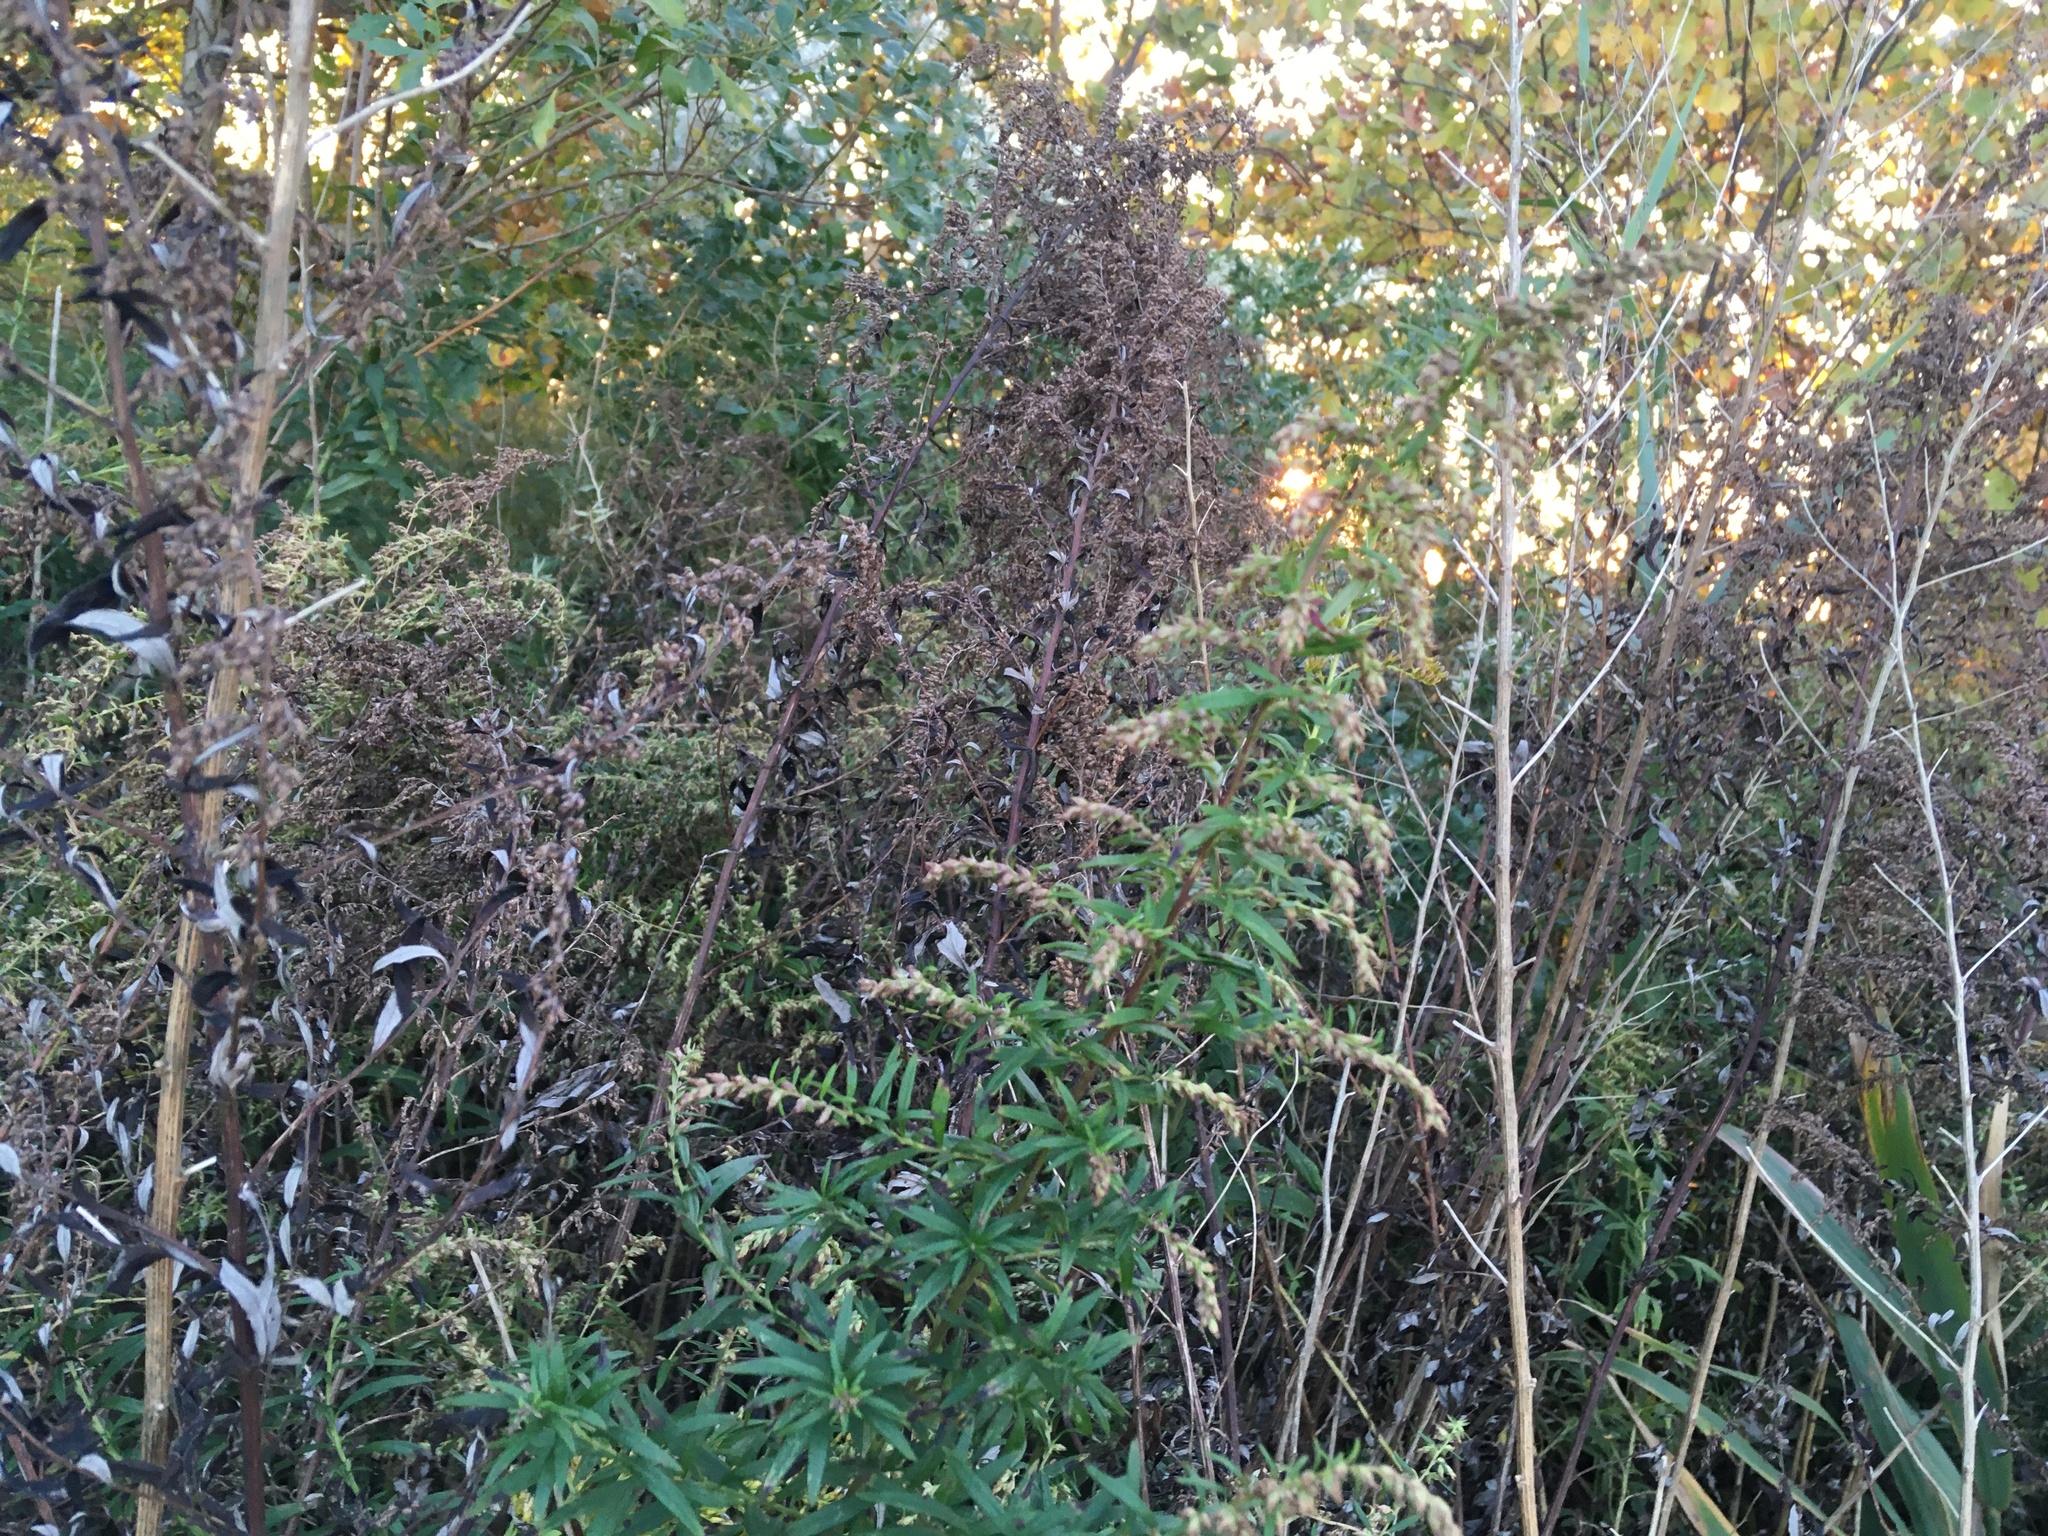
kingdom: Plantae
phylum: Tracheophyta
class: Magnoliopsida
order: Asterales
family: Asteraceae
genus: Artemisia
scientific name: Artemisia vulgaris
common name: Mugwort
